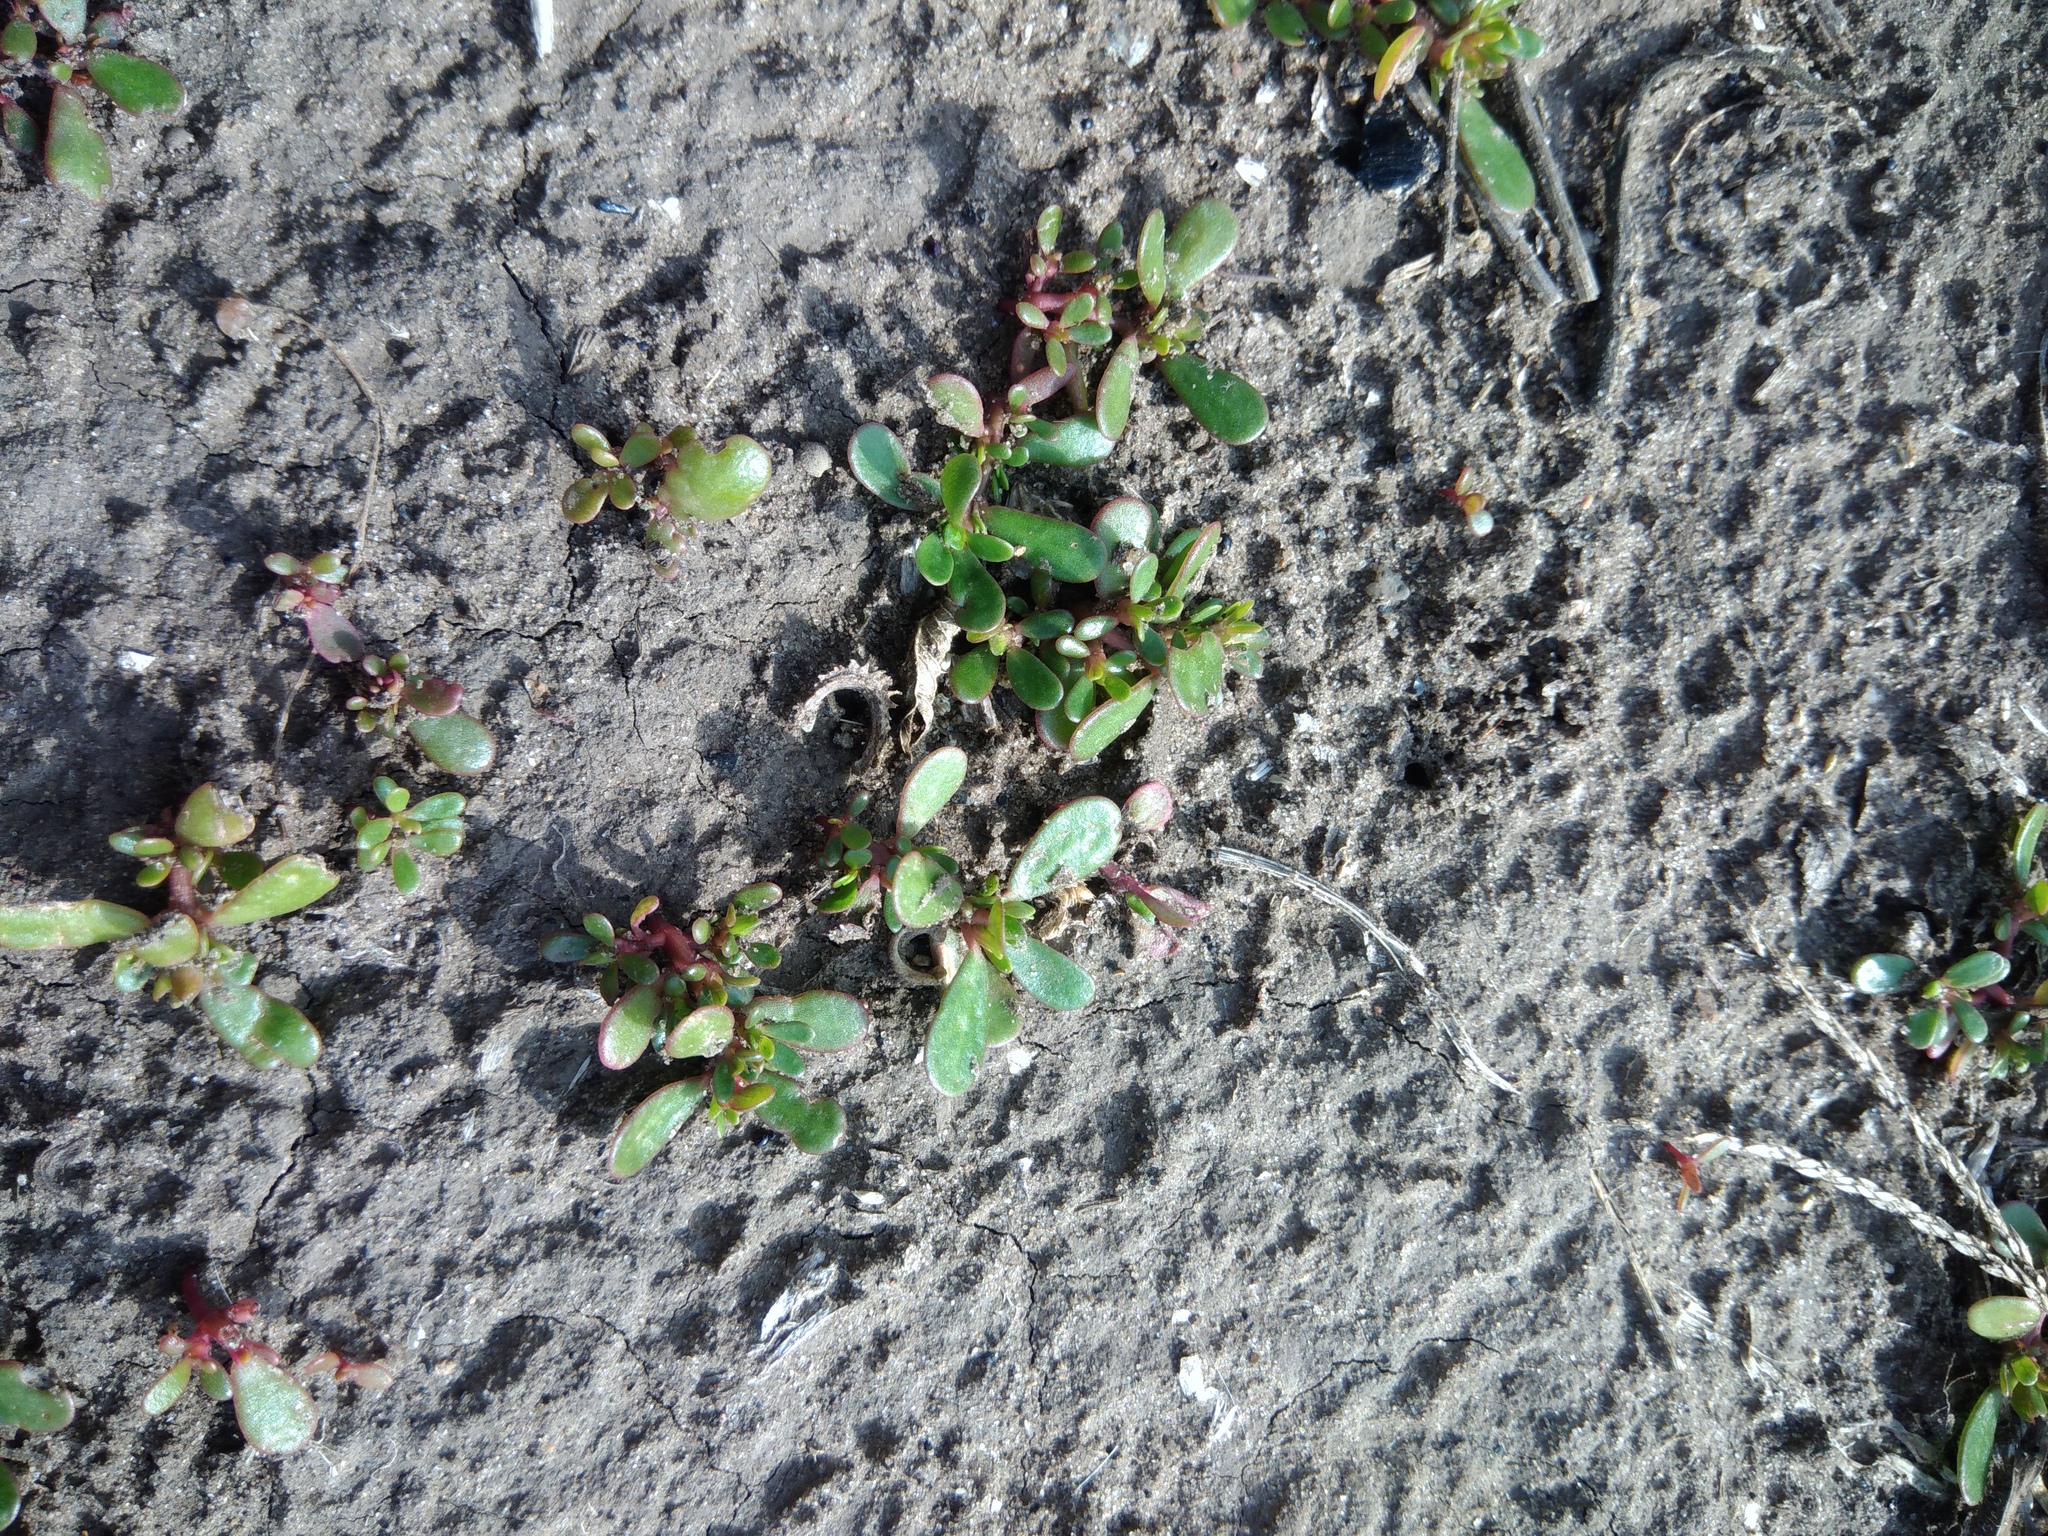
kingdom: Plantae
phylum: Tracheophyta
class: Magnoliopsida
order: Caryophyllales
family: Portulacaceae
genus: Portulaca
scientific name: Portulaca oleracea
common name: Common purslane
